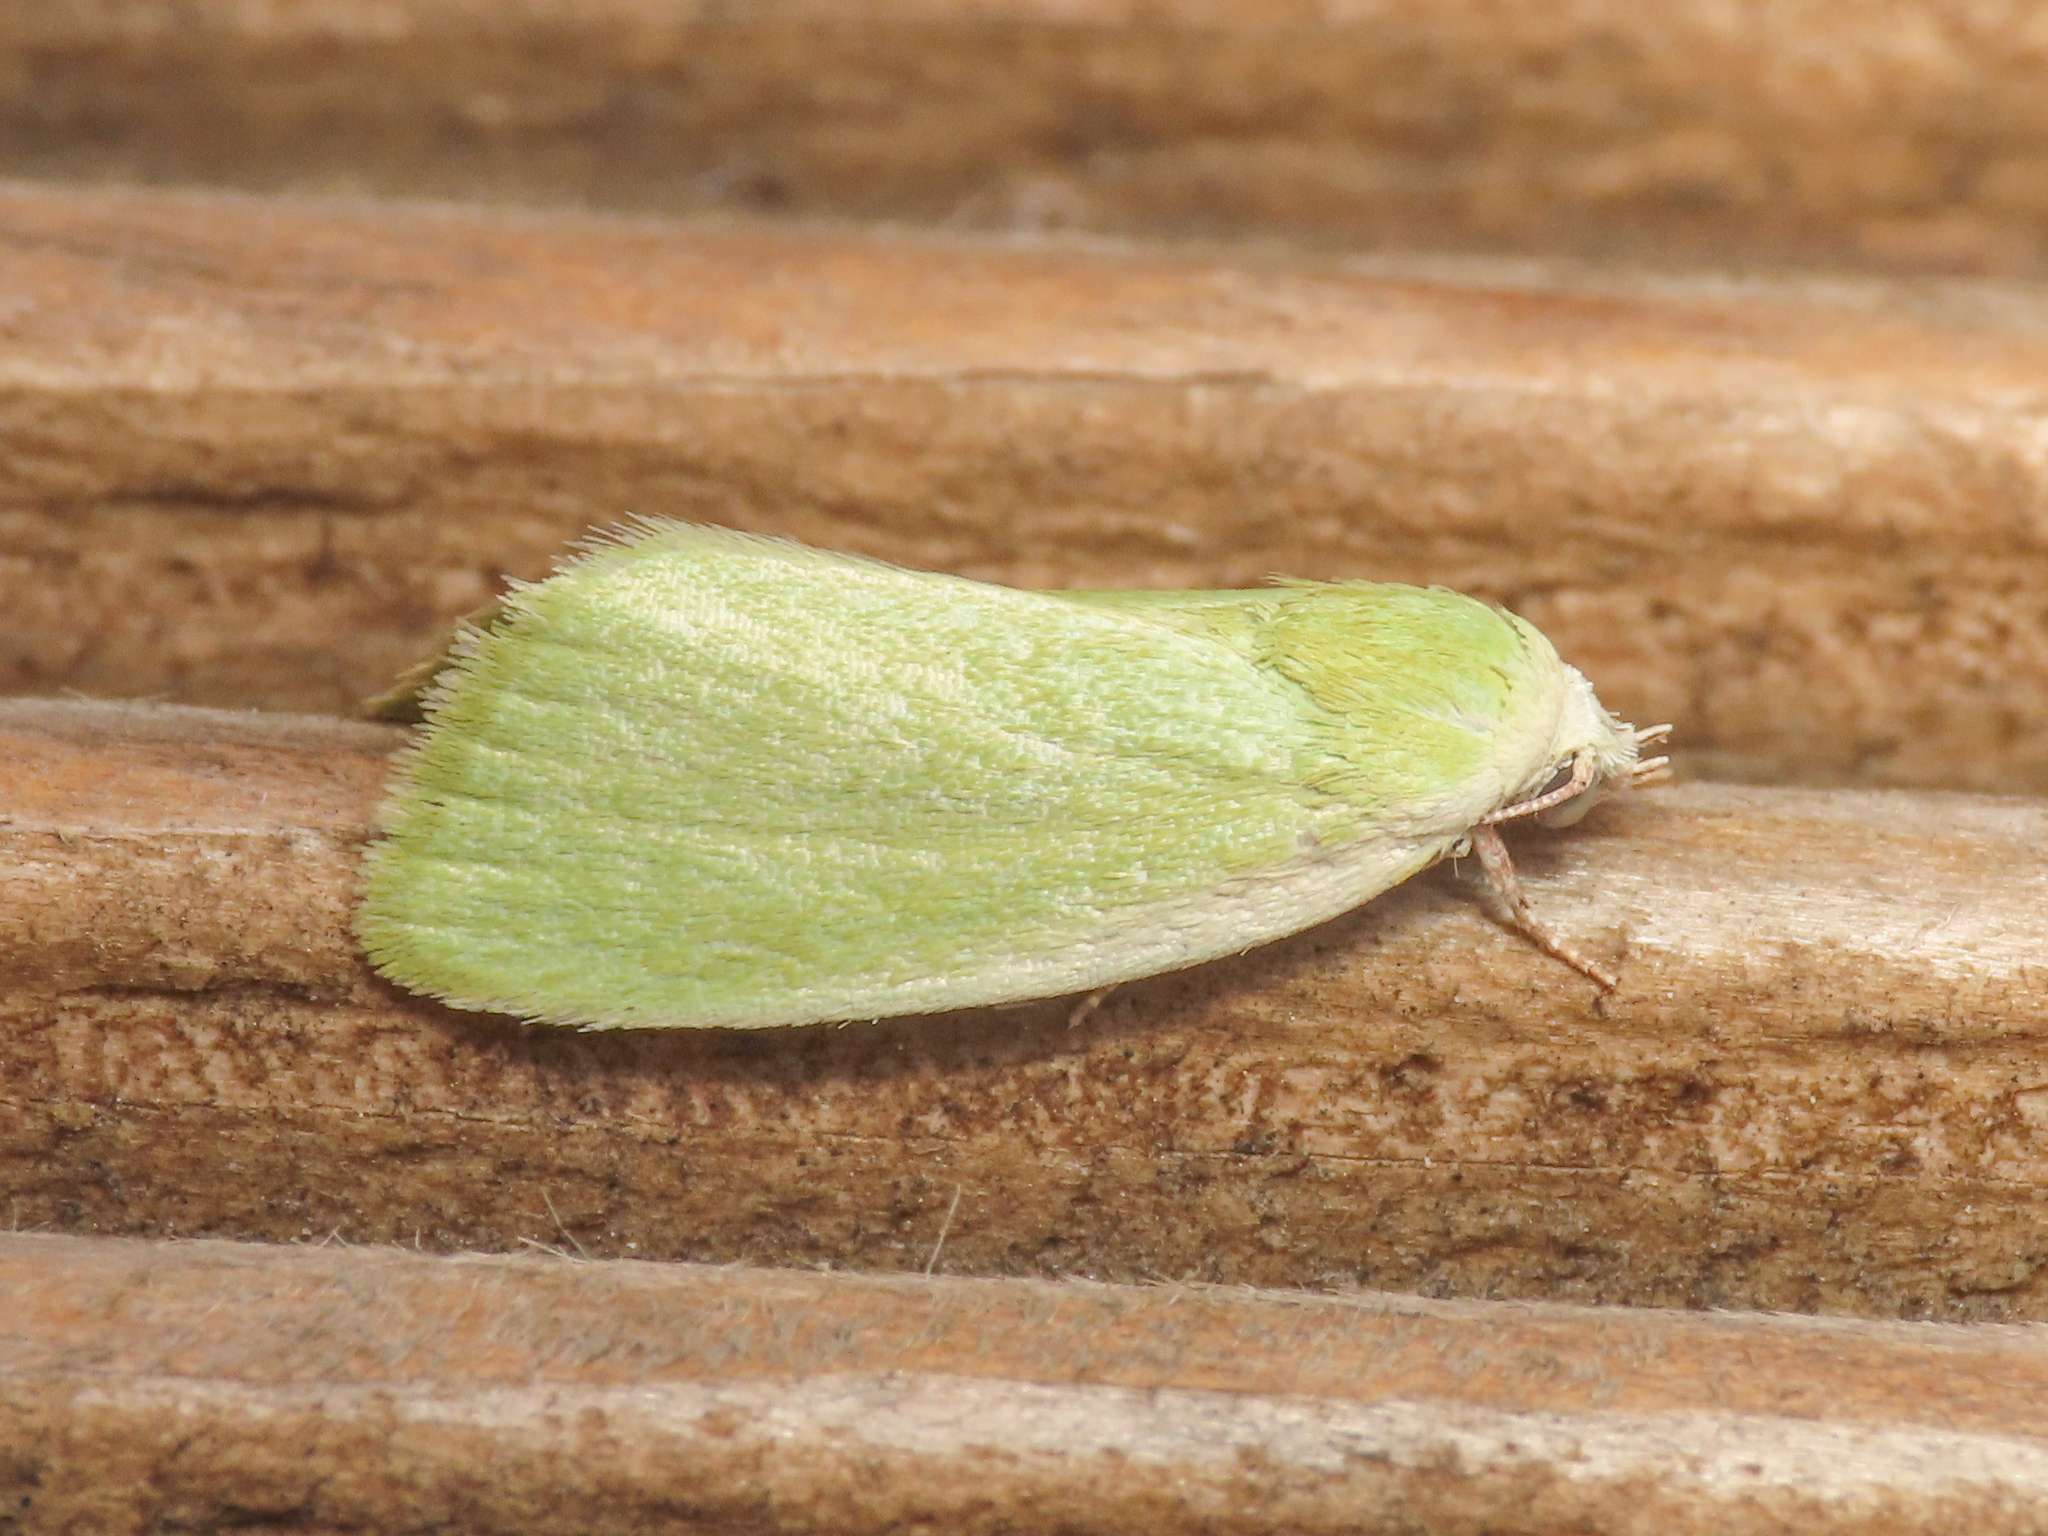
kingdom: Animalia
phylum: Arthropoda
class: Insecta
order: Lepidoptera
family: Nolidae
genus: Earias
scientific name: Earias clorana
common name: Cream-bordered green pea
